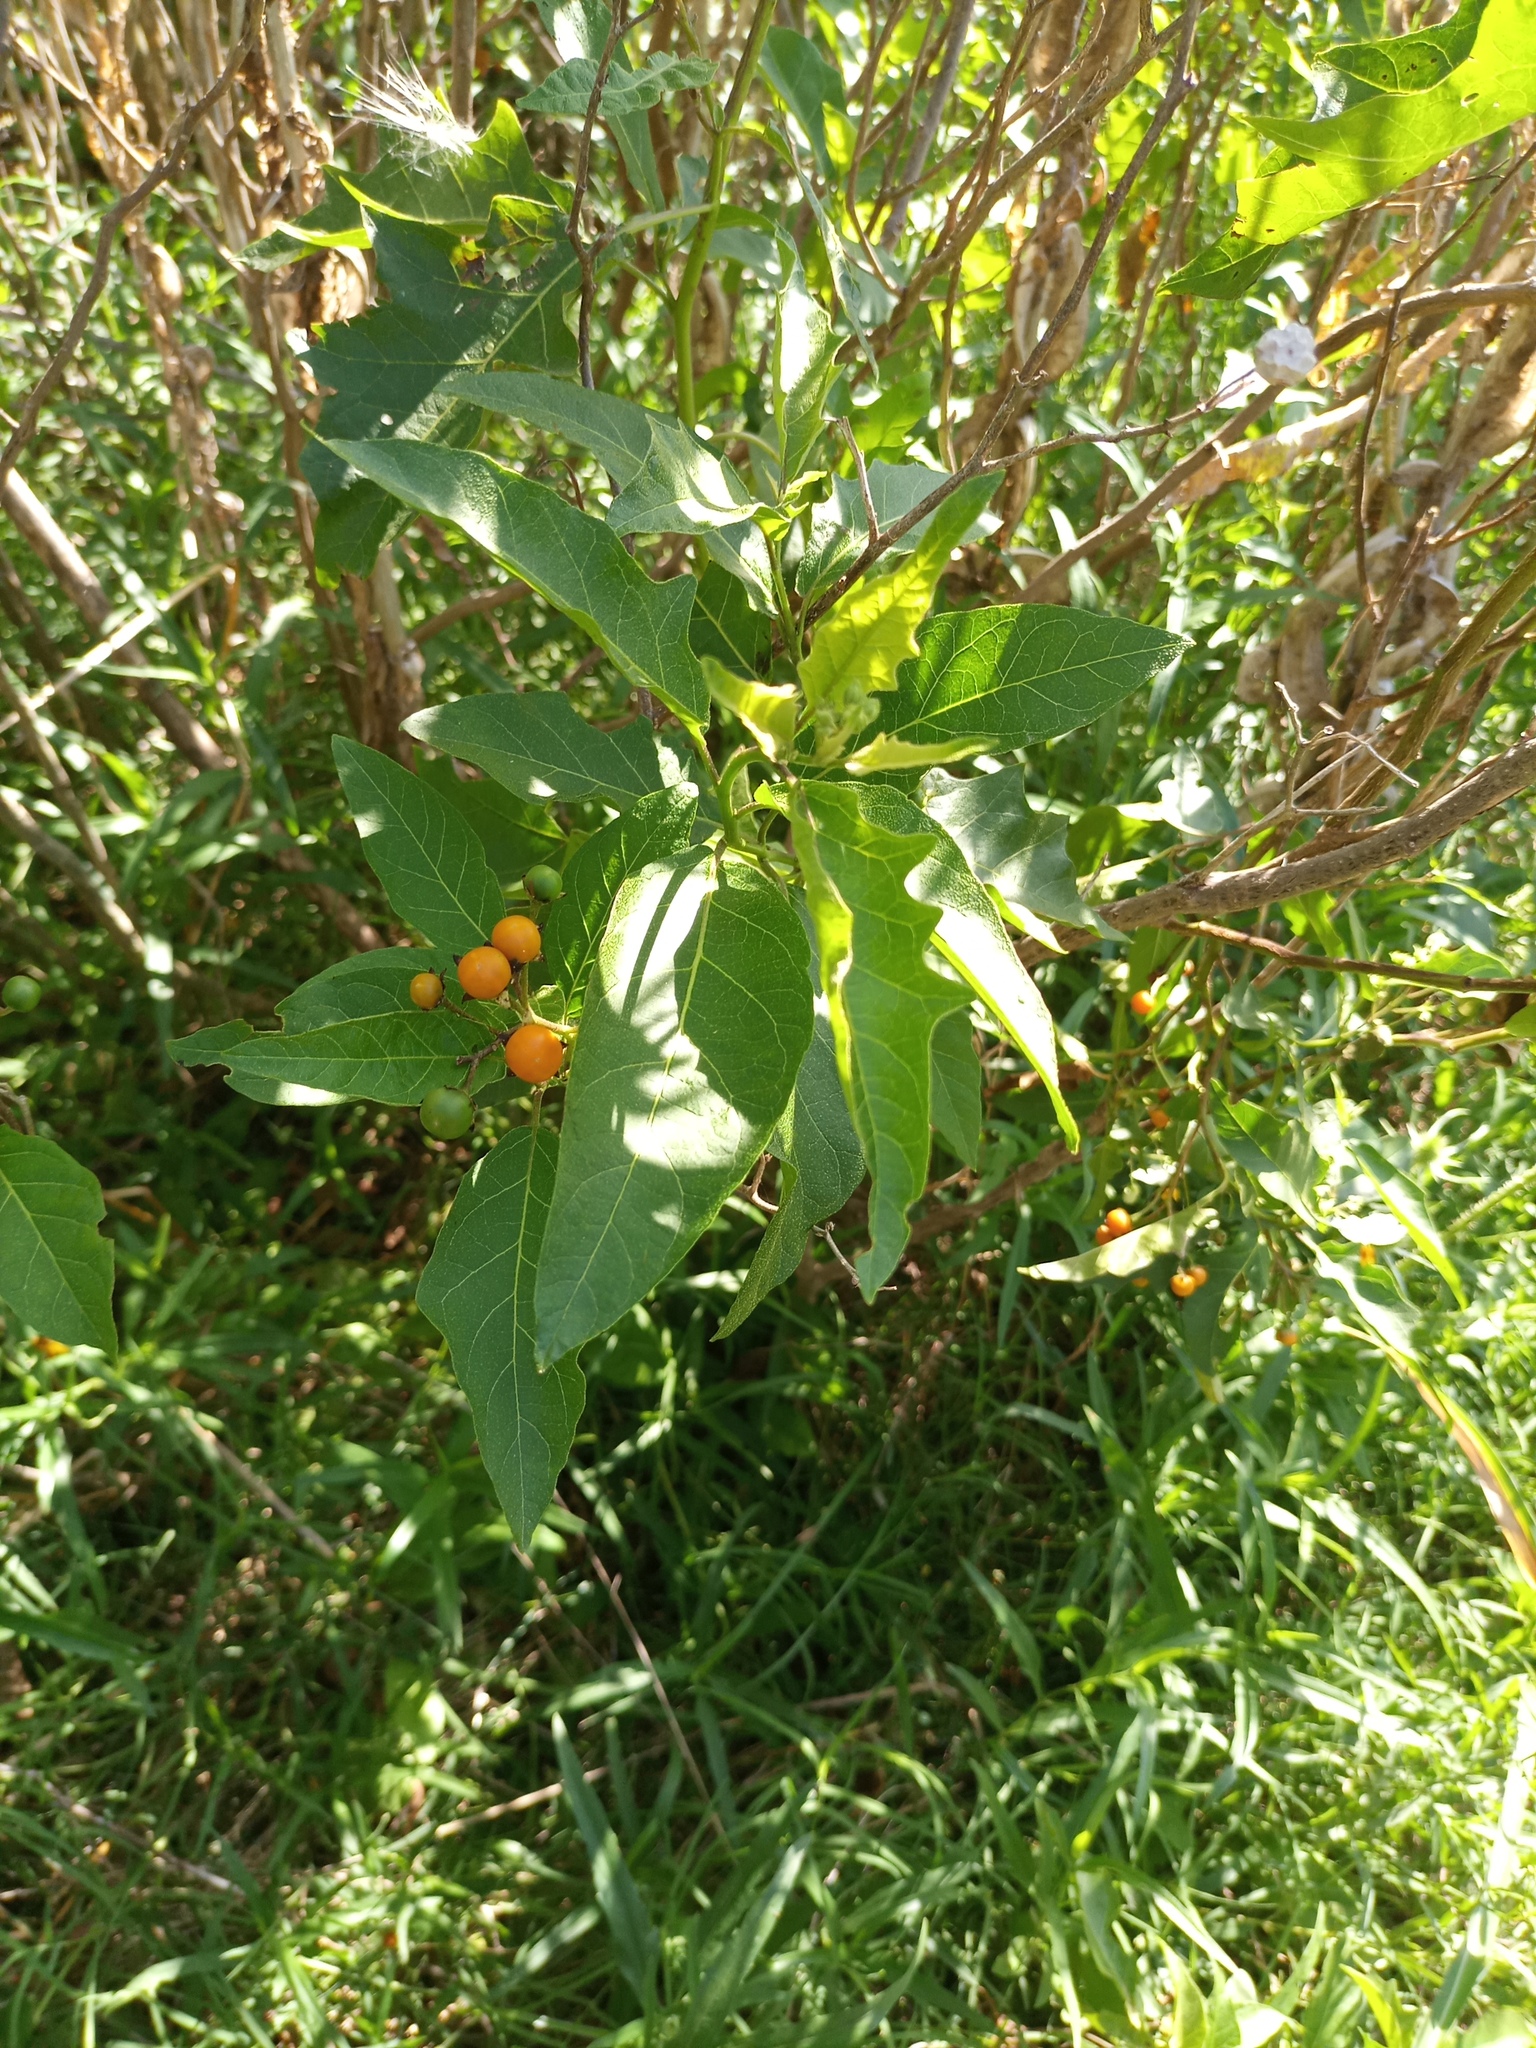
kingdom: Plantae
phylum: Tracheophyta
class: Magnoliopsida
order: Solanales
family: Solanaceae
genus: Solanum
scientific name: Solanum bonariense
